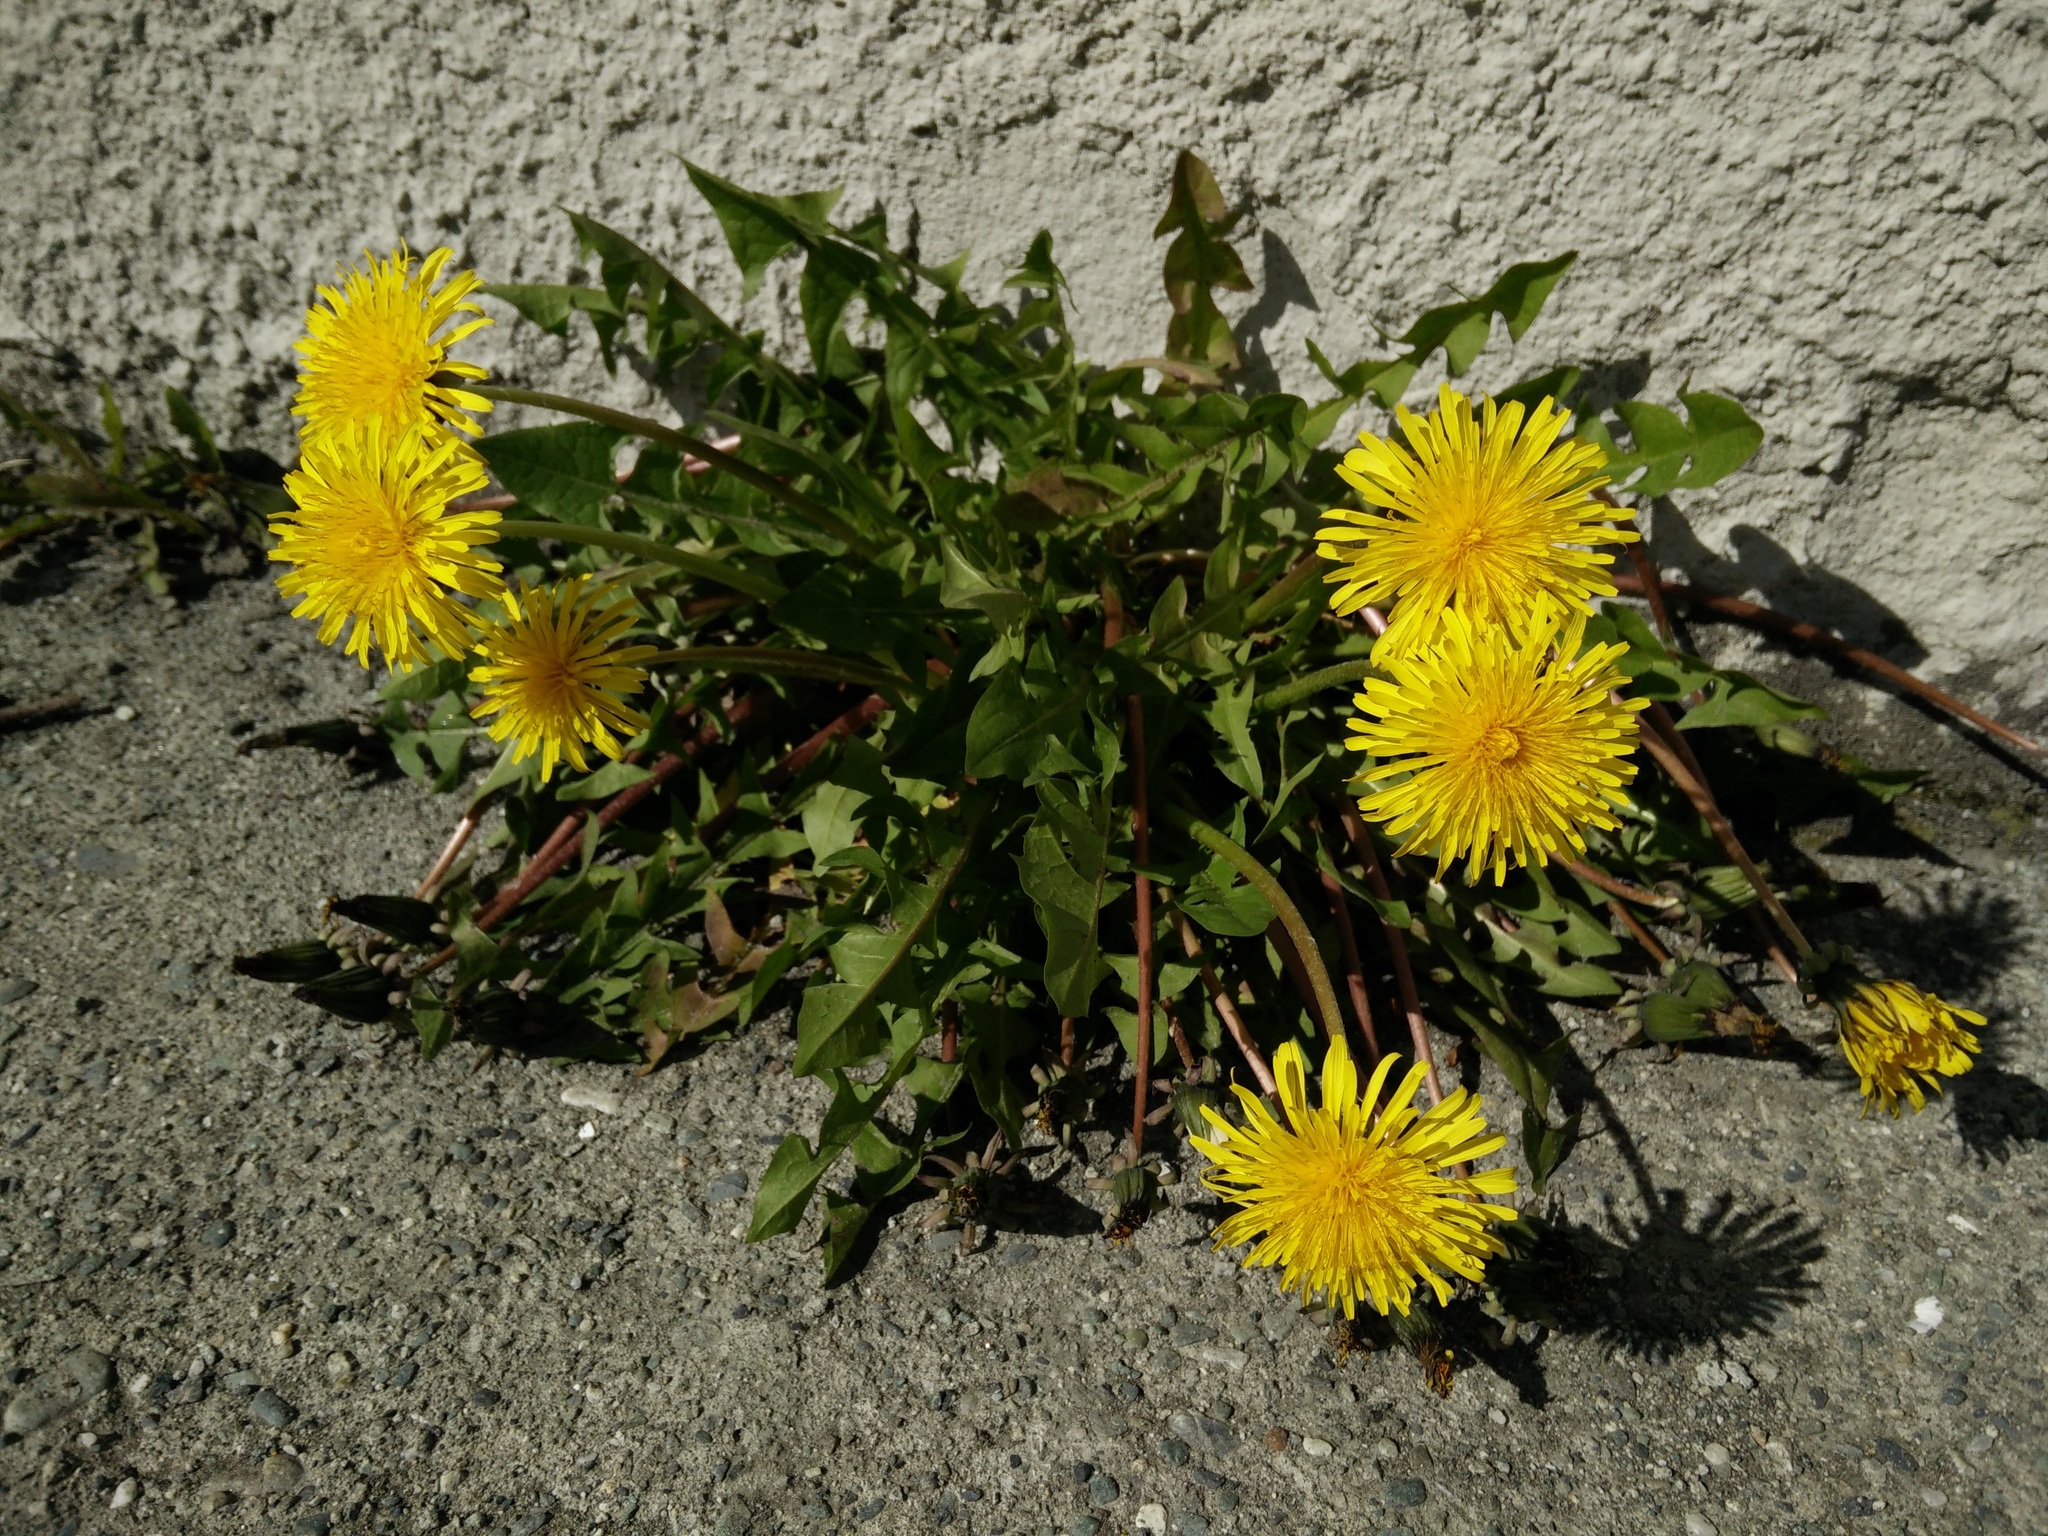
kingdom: Plantae
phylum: Tracheophyta
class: Magnoliopsida
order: Asterales
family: Asteraceae
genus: Taraxacum
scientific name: Taraxacum officinale
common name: Common dandelion
